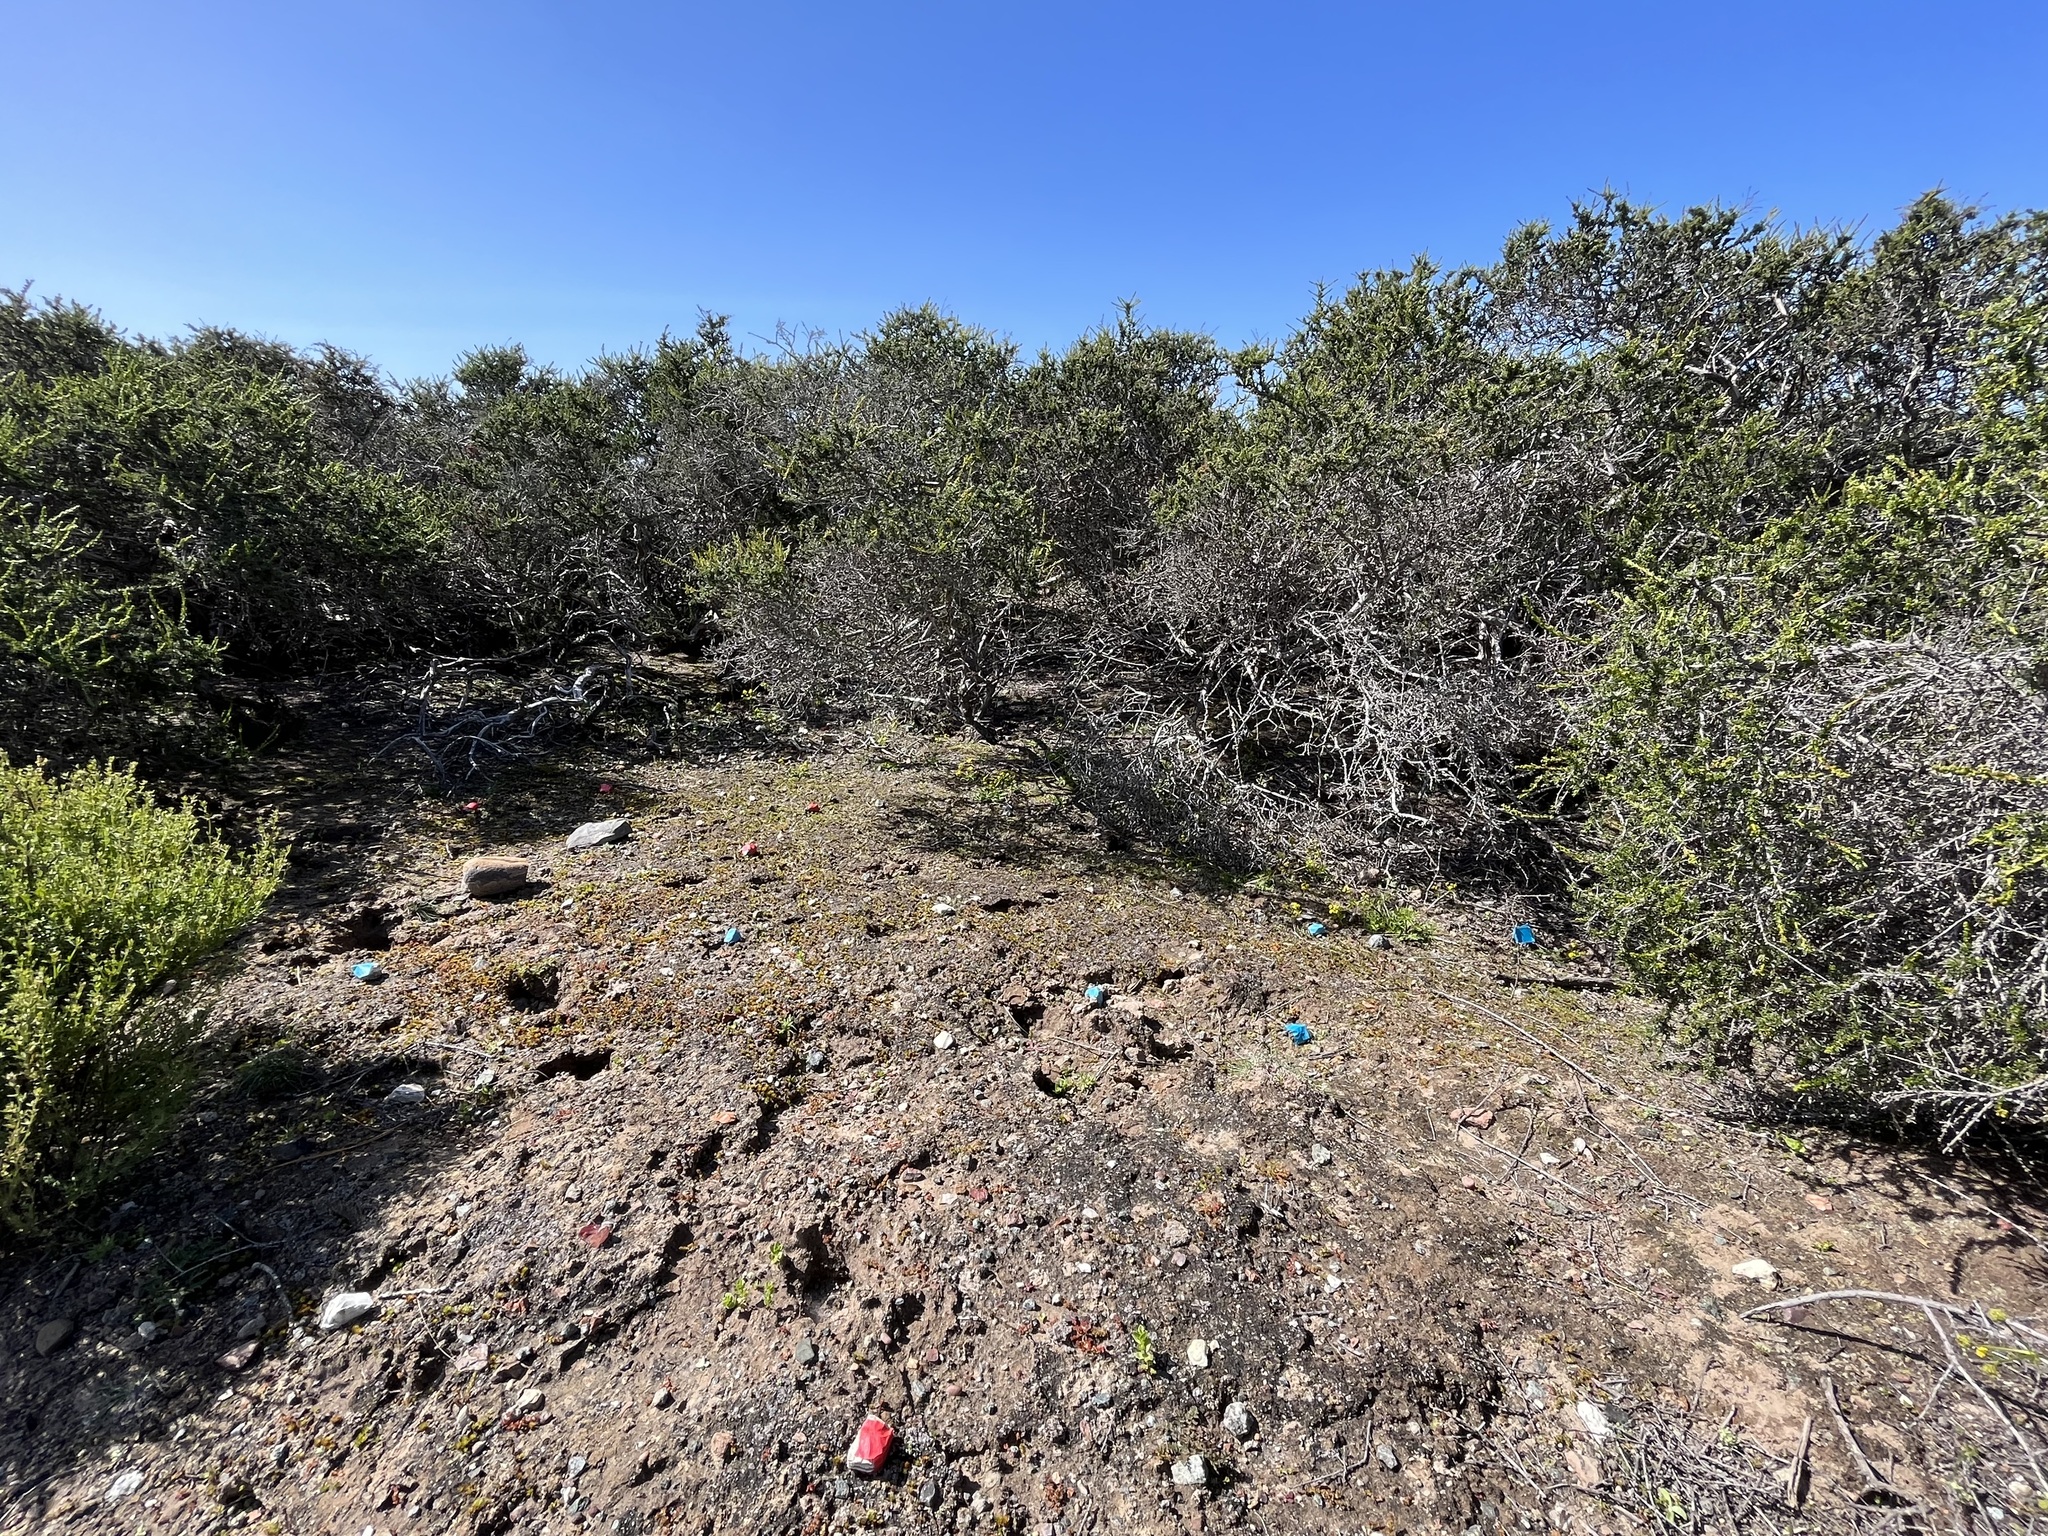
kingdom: Plantae
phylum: Tracheophyta
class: Magnoliopsida
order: Asterales
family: Asteraceae
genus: Ancistrocarphus
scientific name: Ancistrocarphus keilii
